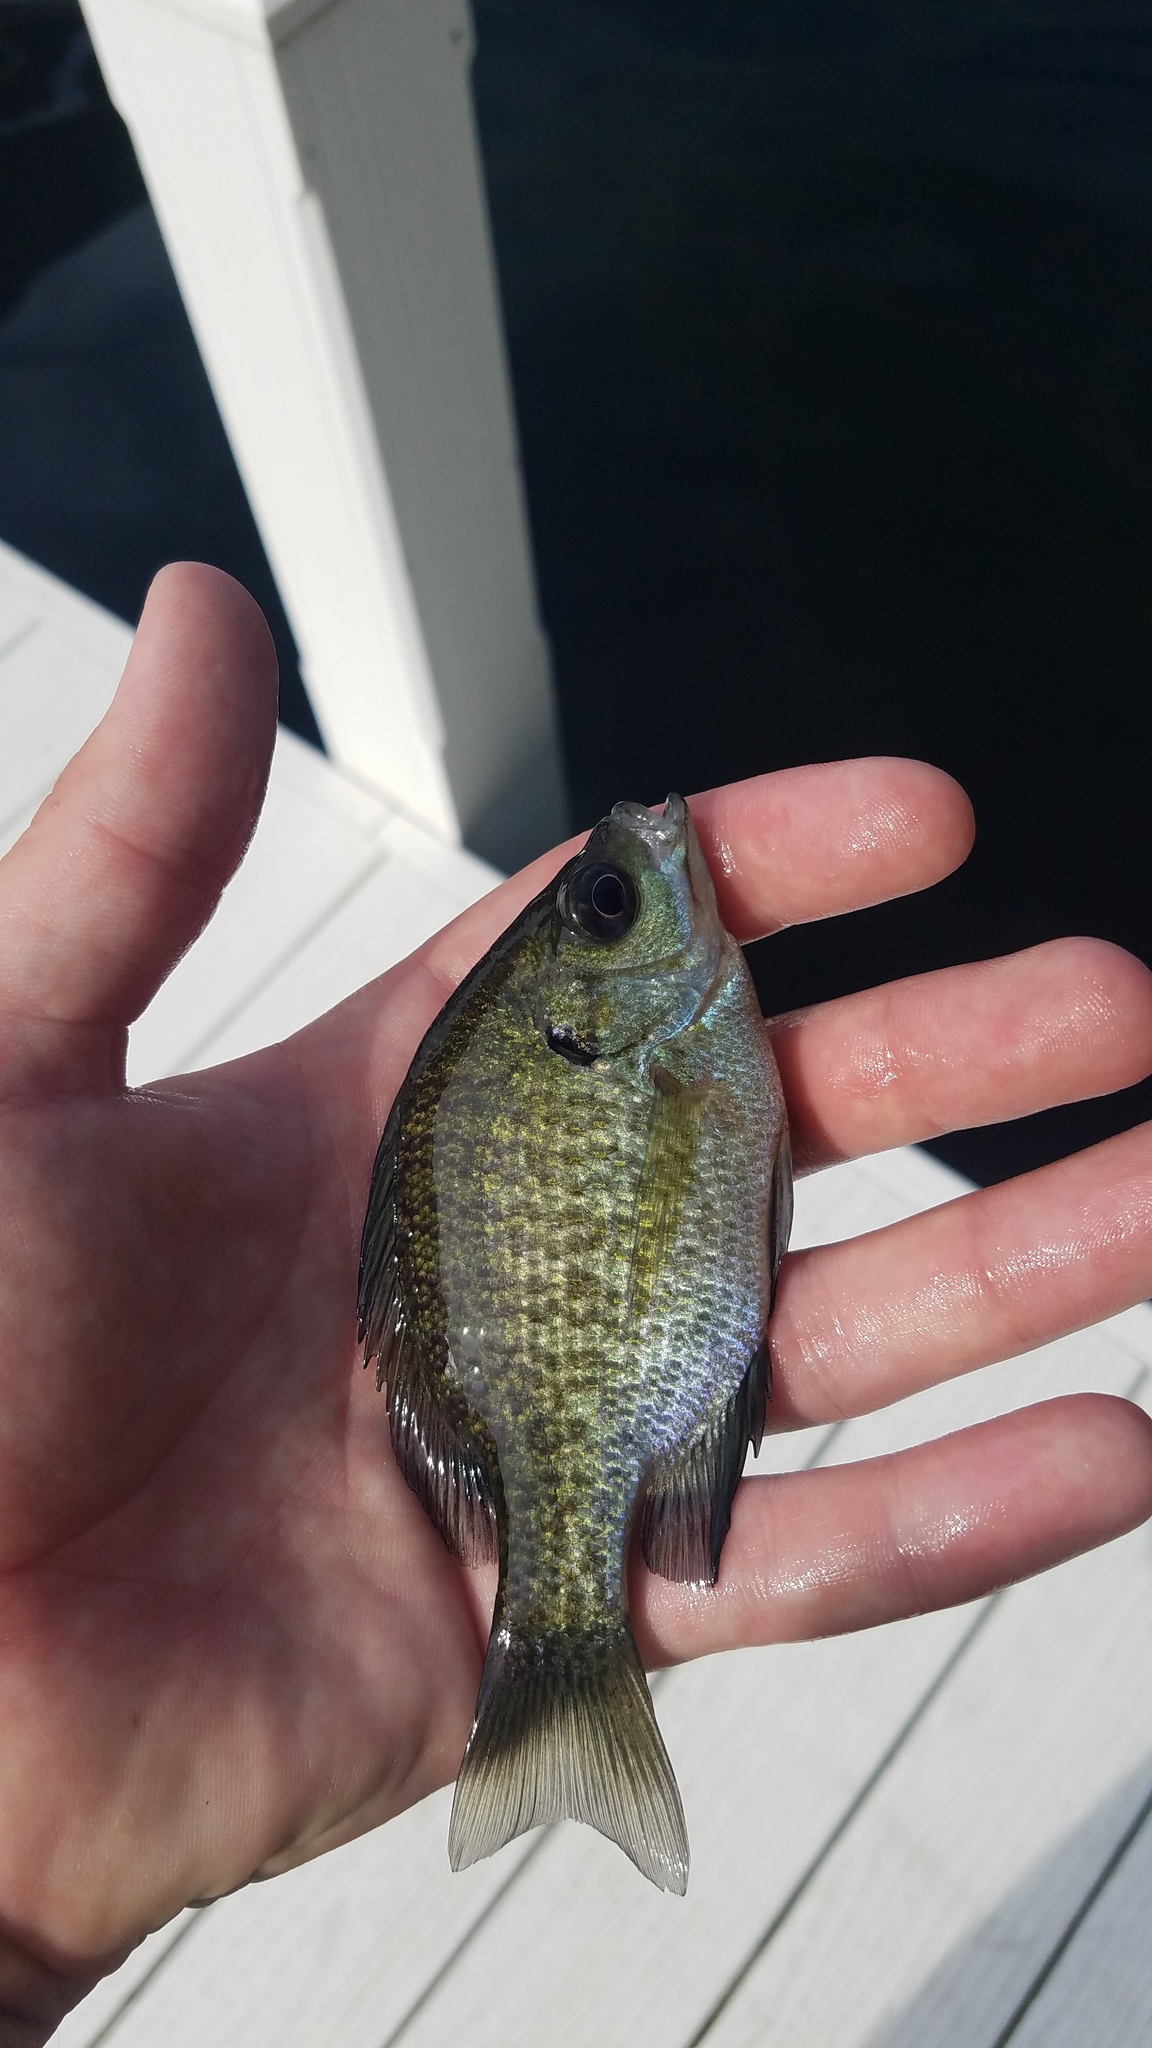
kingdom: Animalia
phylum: Chordata
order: Perciformes
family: Centrarchidae
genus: Lepomis
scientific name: Lepomis macrochirus
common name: Bluegill
